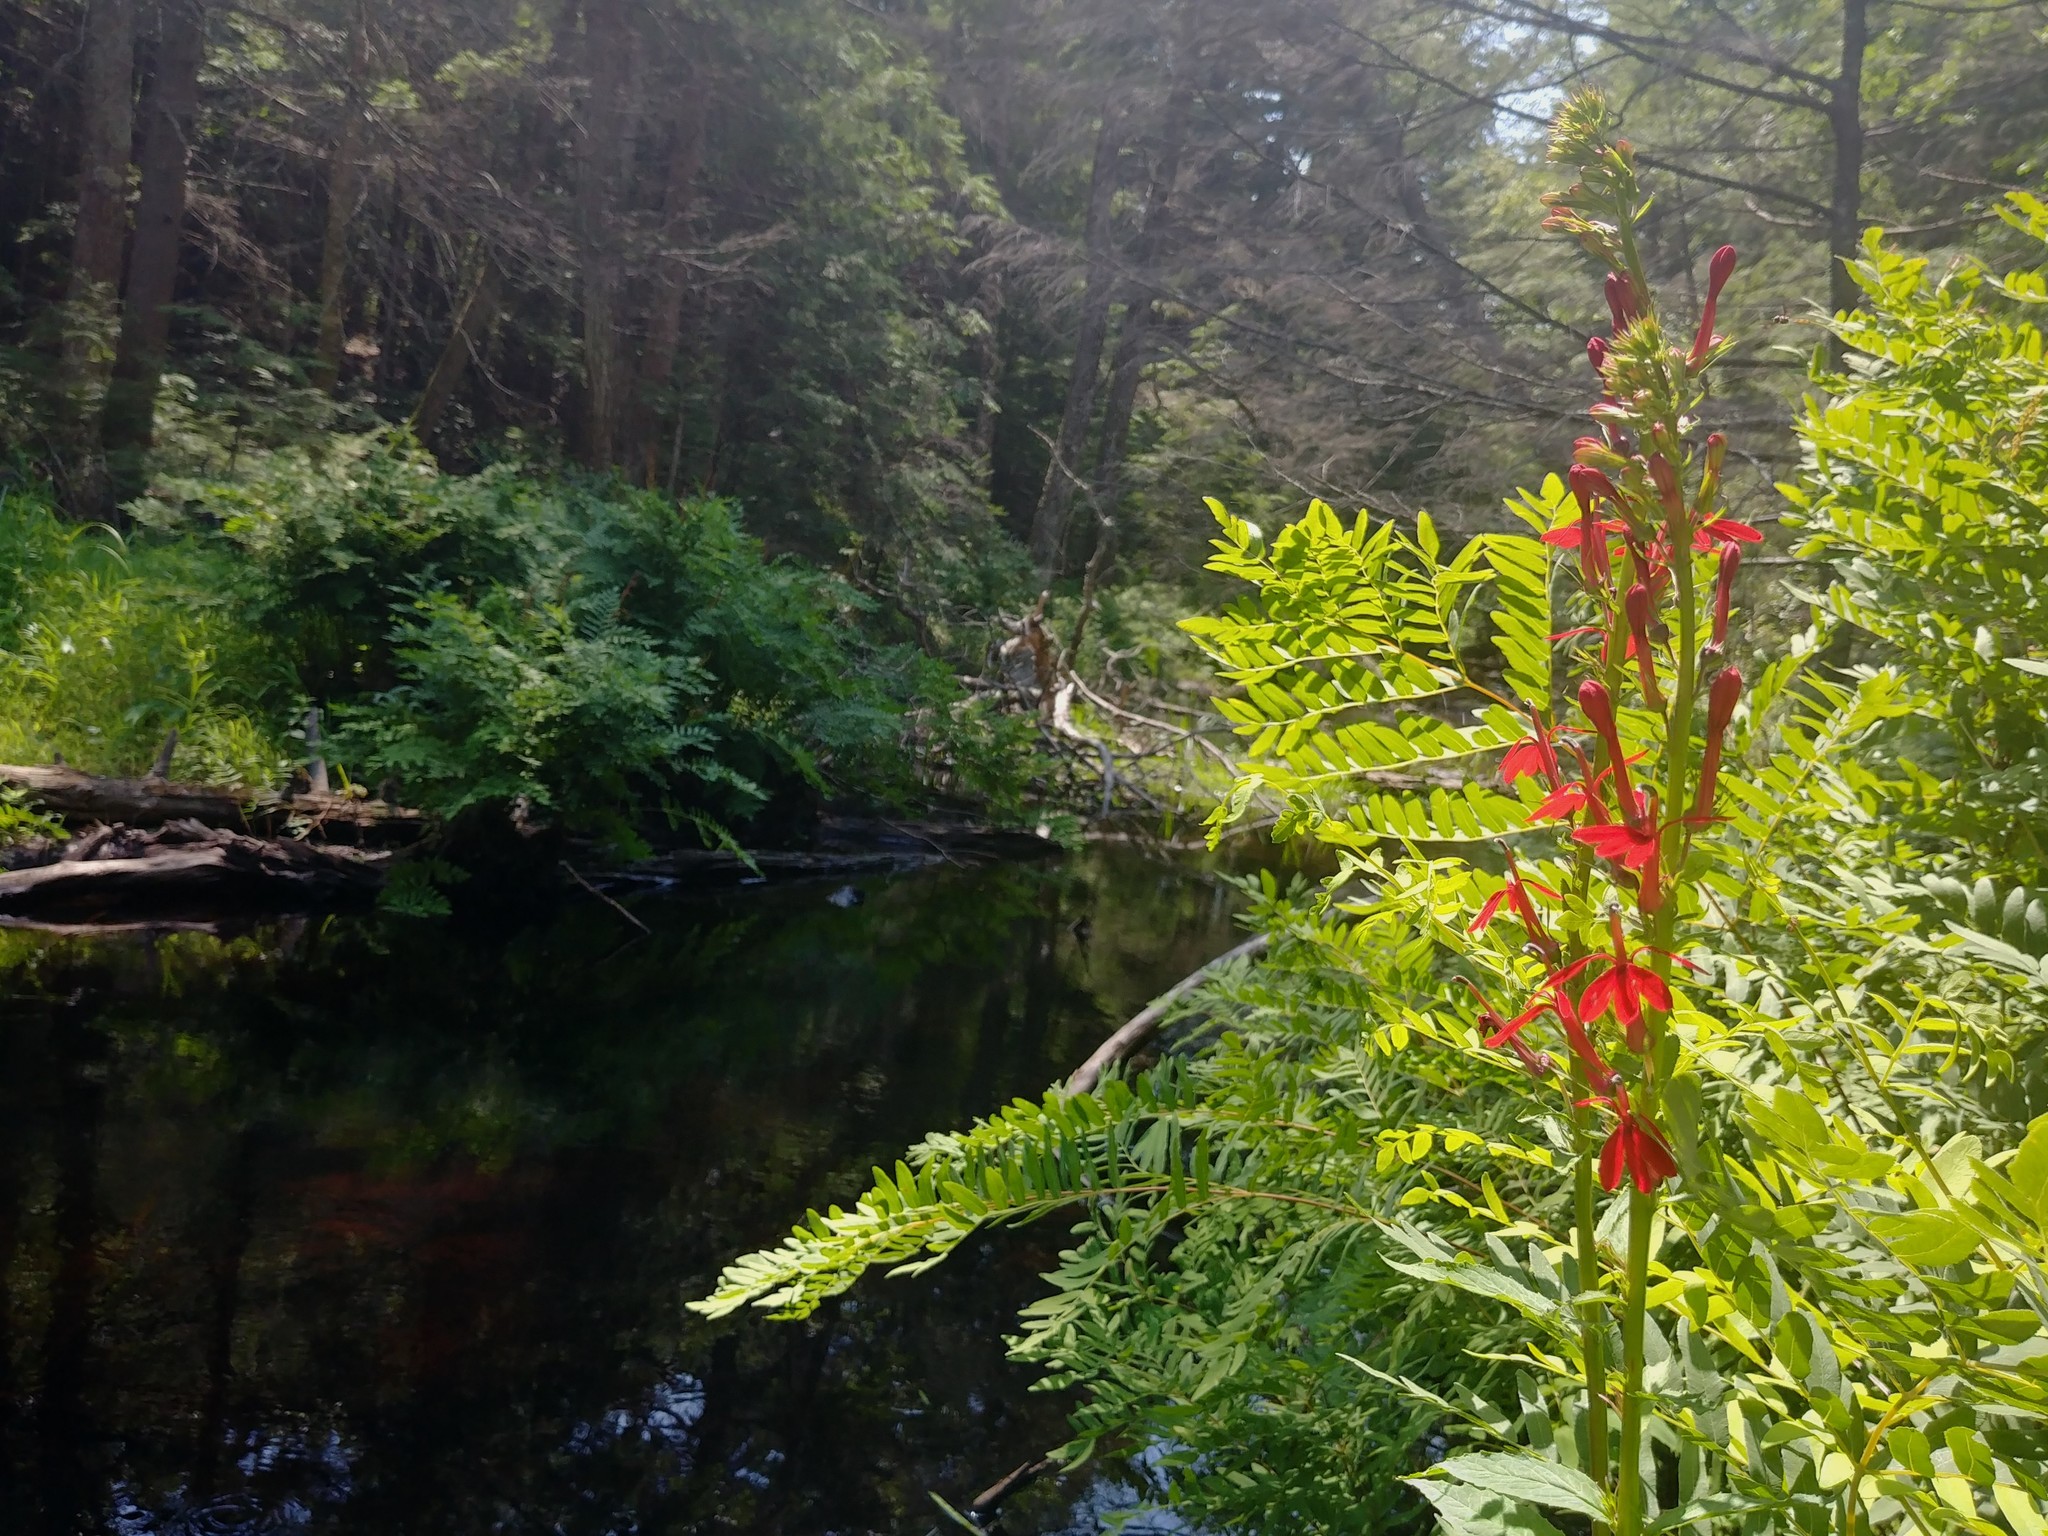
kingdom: Plantae
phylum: Tracheophyta
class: Magnoliopsida
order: Asterales
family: Campanulaceae
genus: Lobelia
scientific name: Lobelia cardinalis
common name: Cardinal flower
